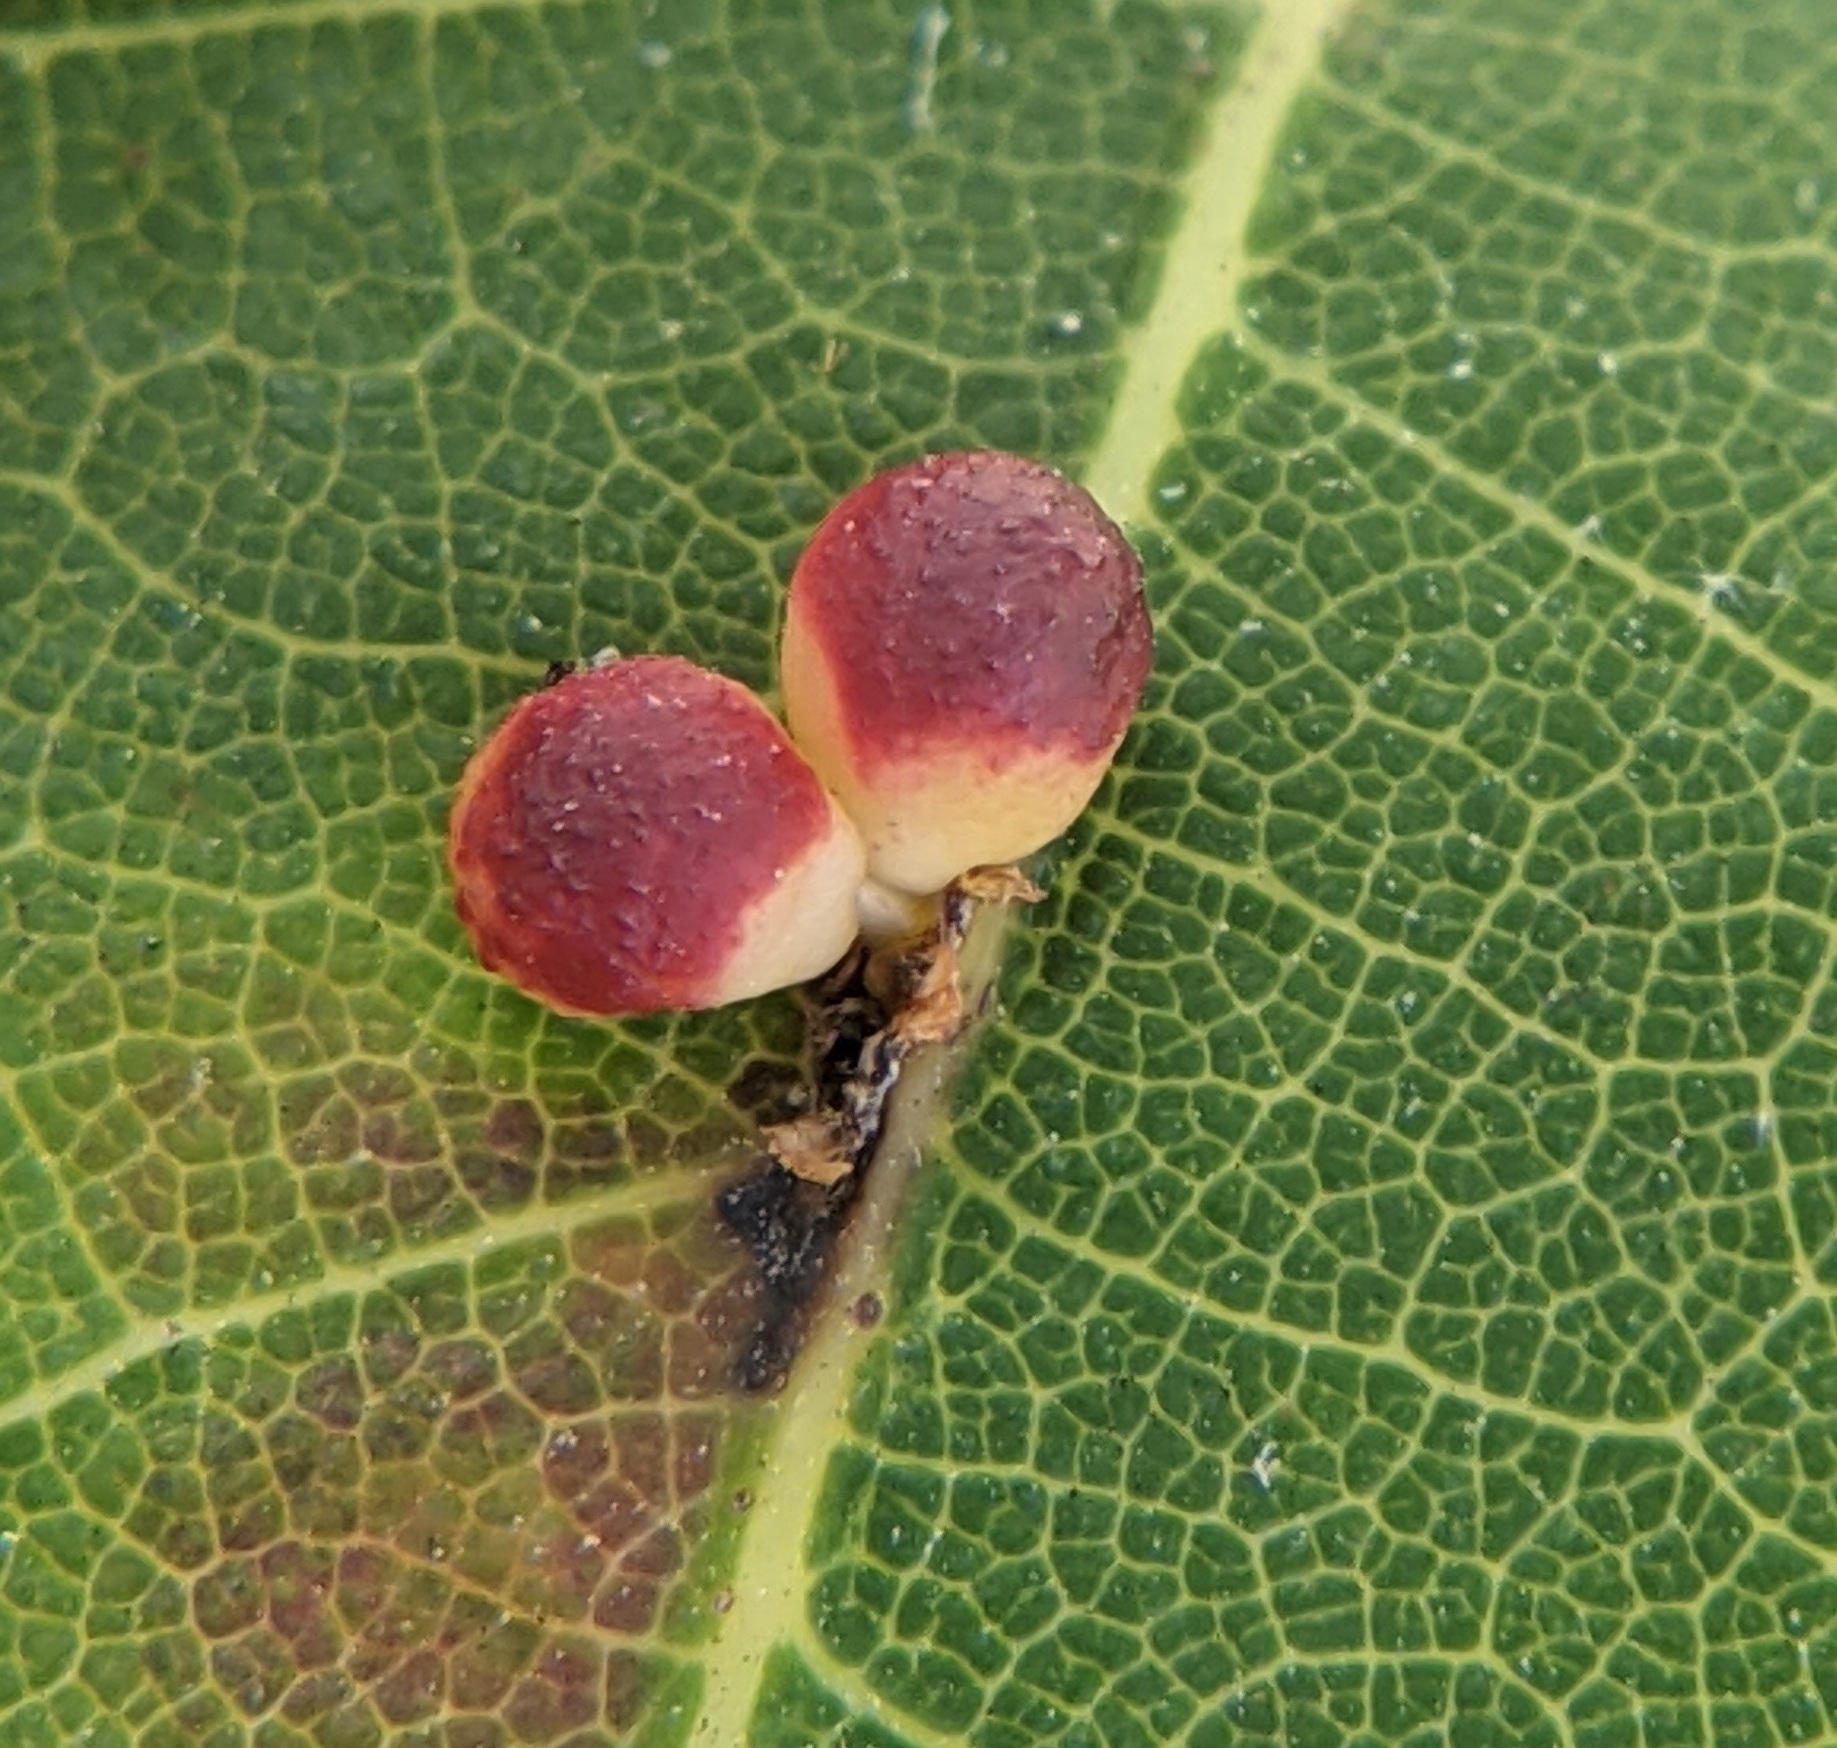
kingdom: Animalia
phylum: Arthropoda
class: Insecta
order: Hymenoptera
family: Cynipidae
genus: Zopheroteras
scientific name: Zopheroteras
